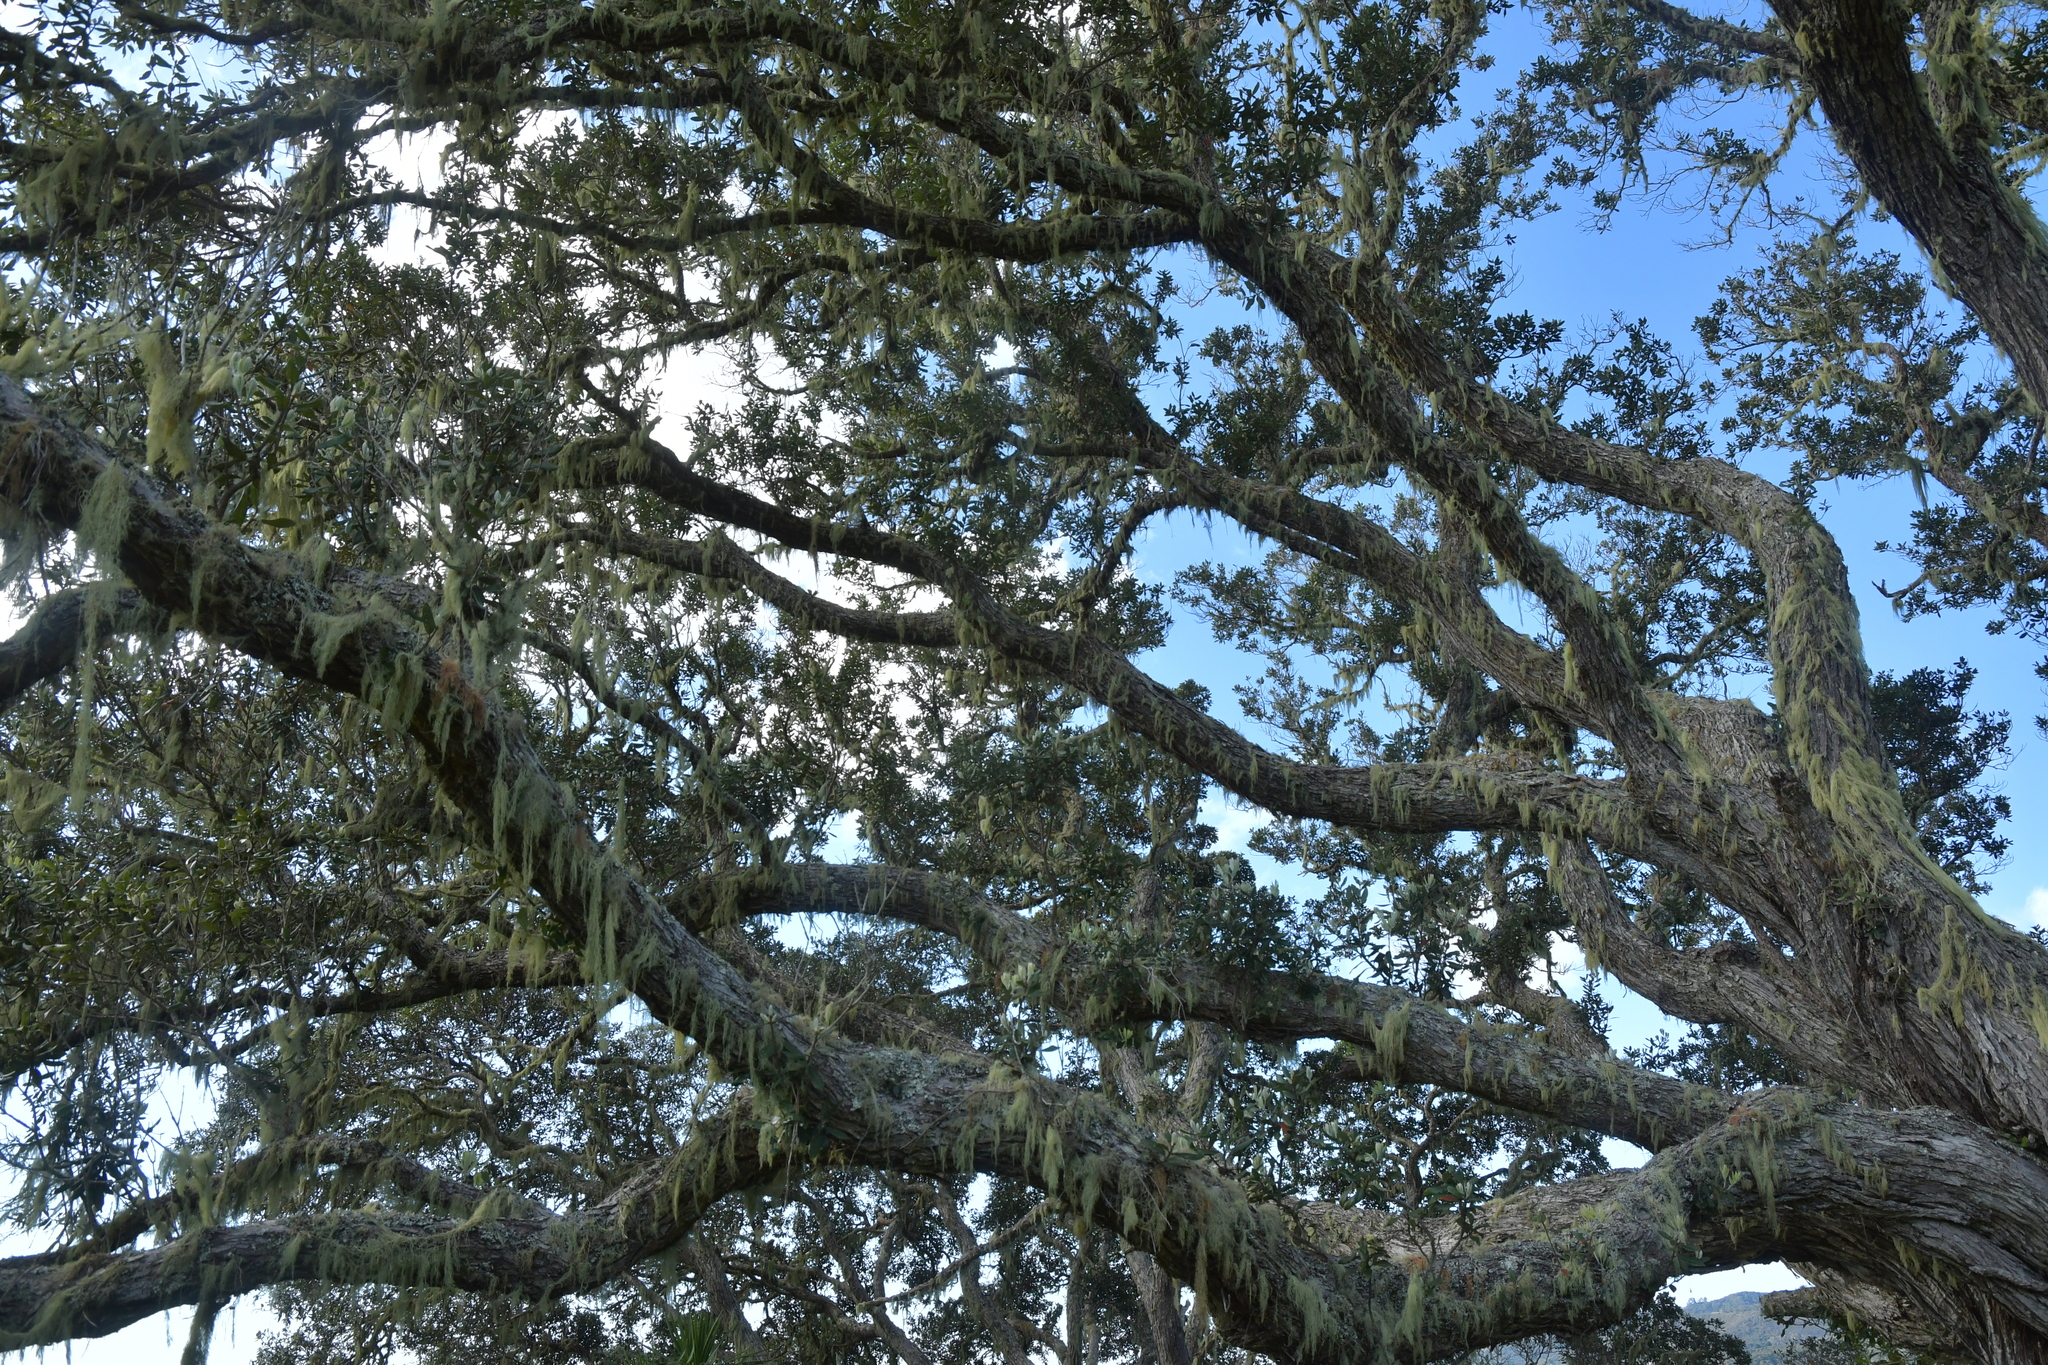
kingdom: Plantae
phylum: Tracheophyta
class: Magnoliopsida
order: Myrtales
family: Myrtaceae
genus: Metrosideros
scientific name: Metrosideros excelsa
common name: New zealand christmastree
